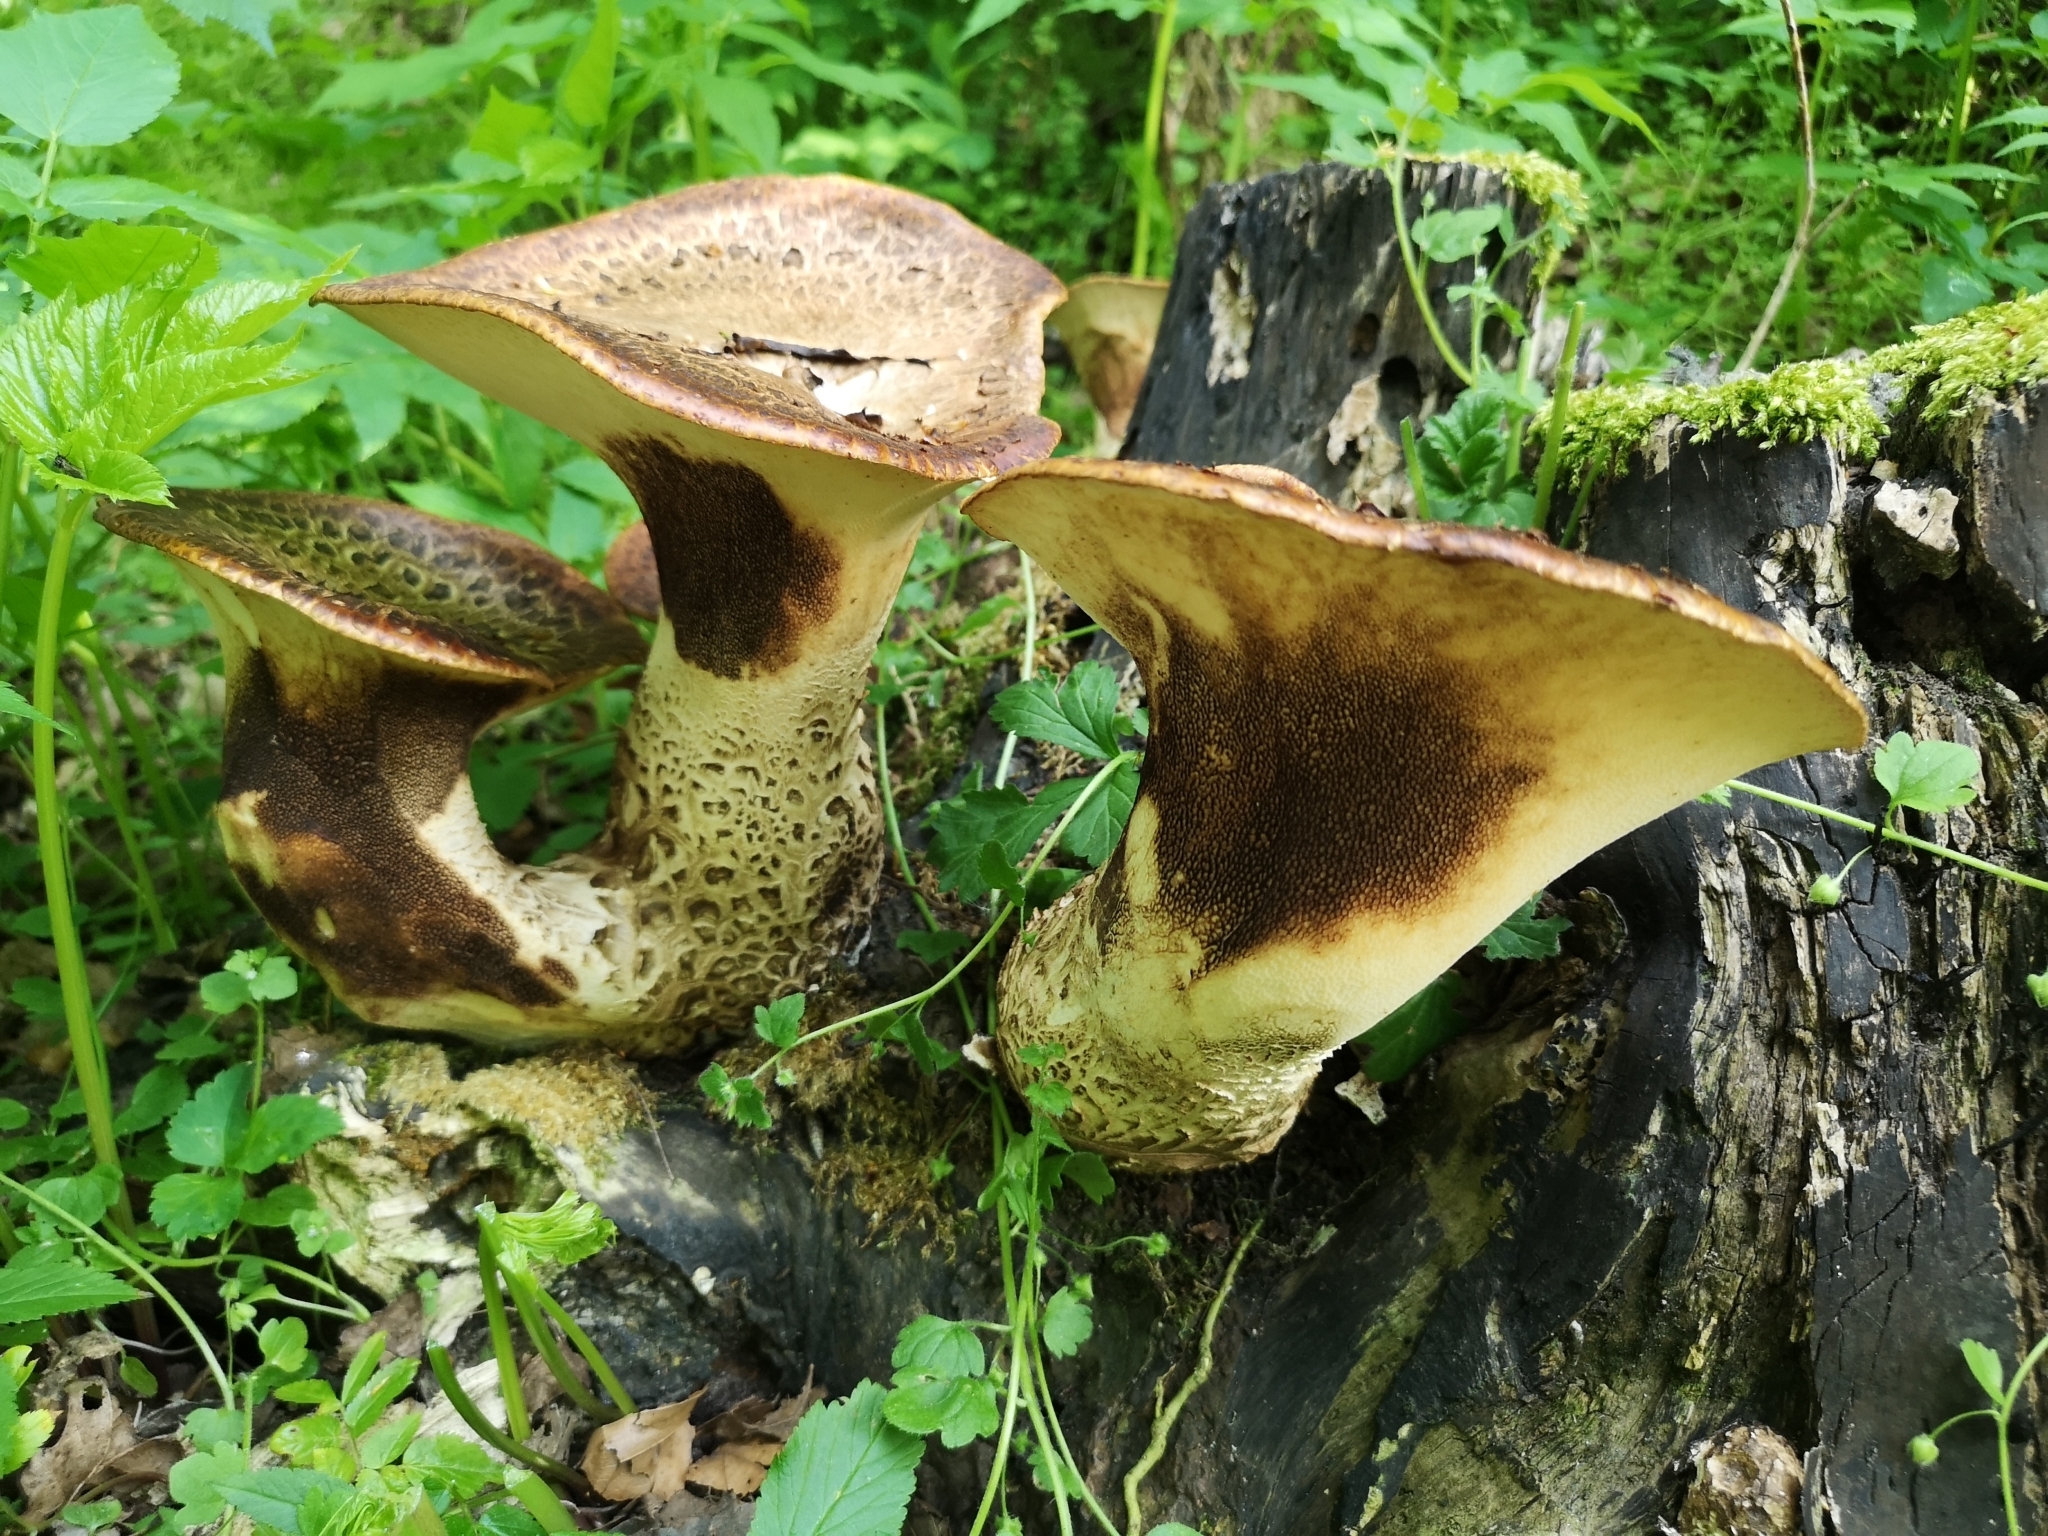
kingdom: Fungi
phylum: Basidiomycota
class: Agaricomycetes
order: Polyporales
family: Polyporaceae
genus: Cerioporus
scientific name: Cerioporus squamosus
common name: Dryad's saddle
